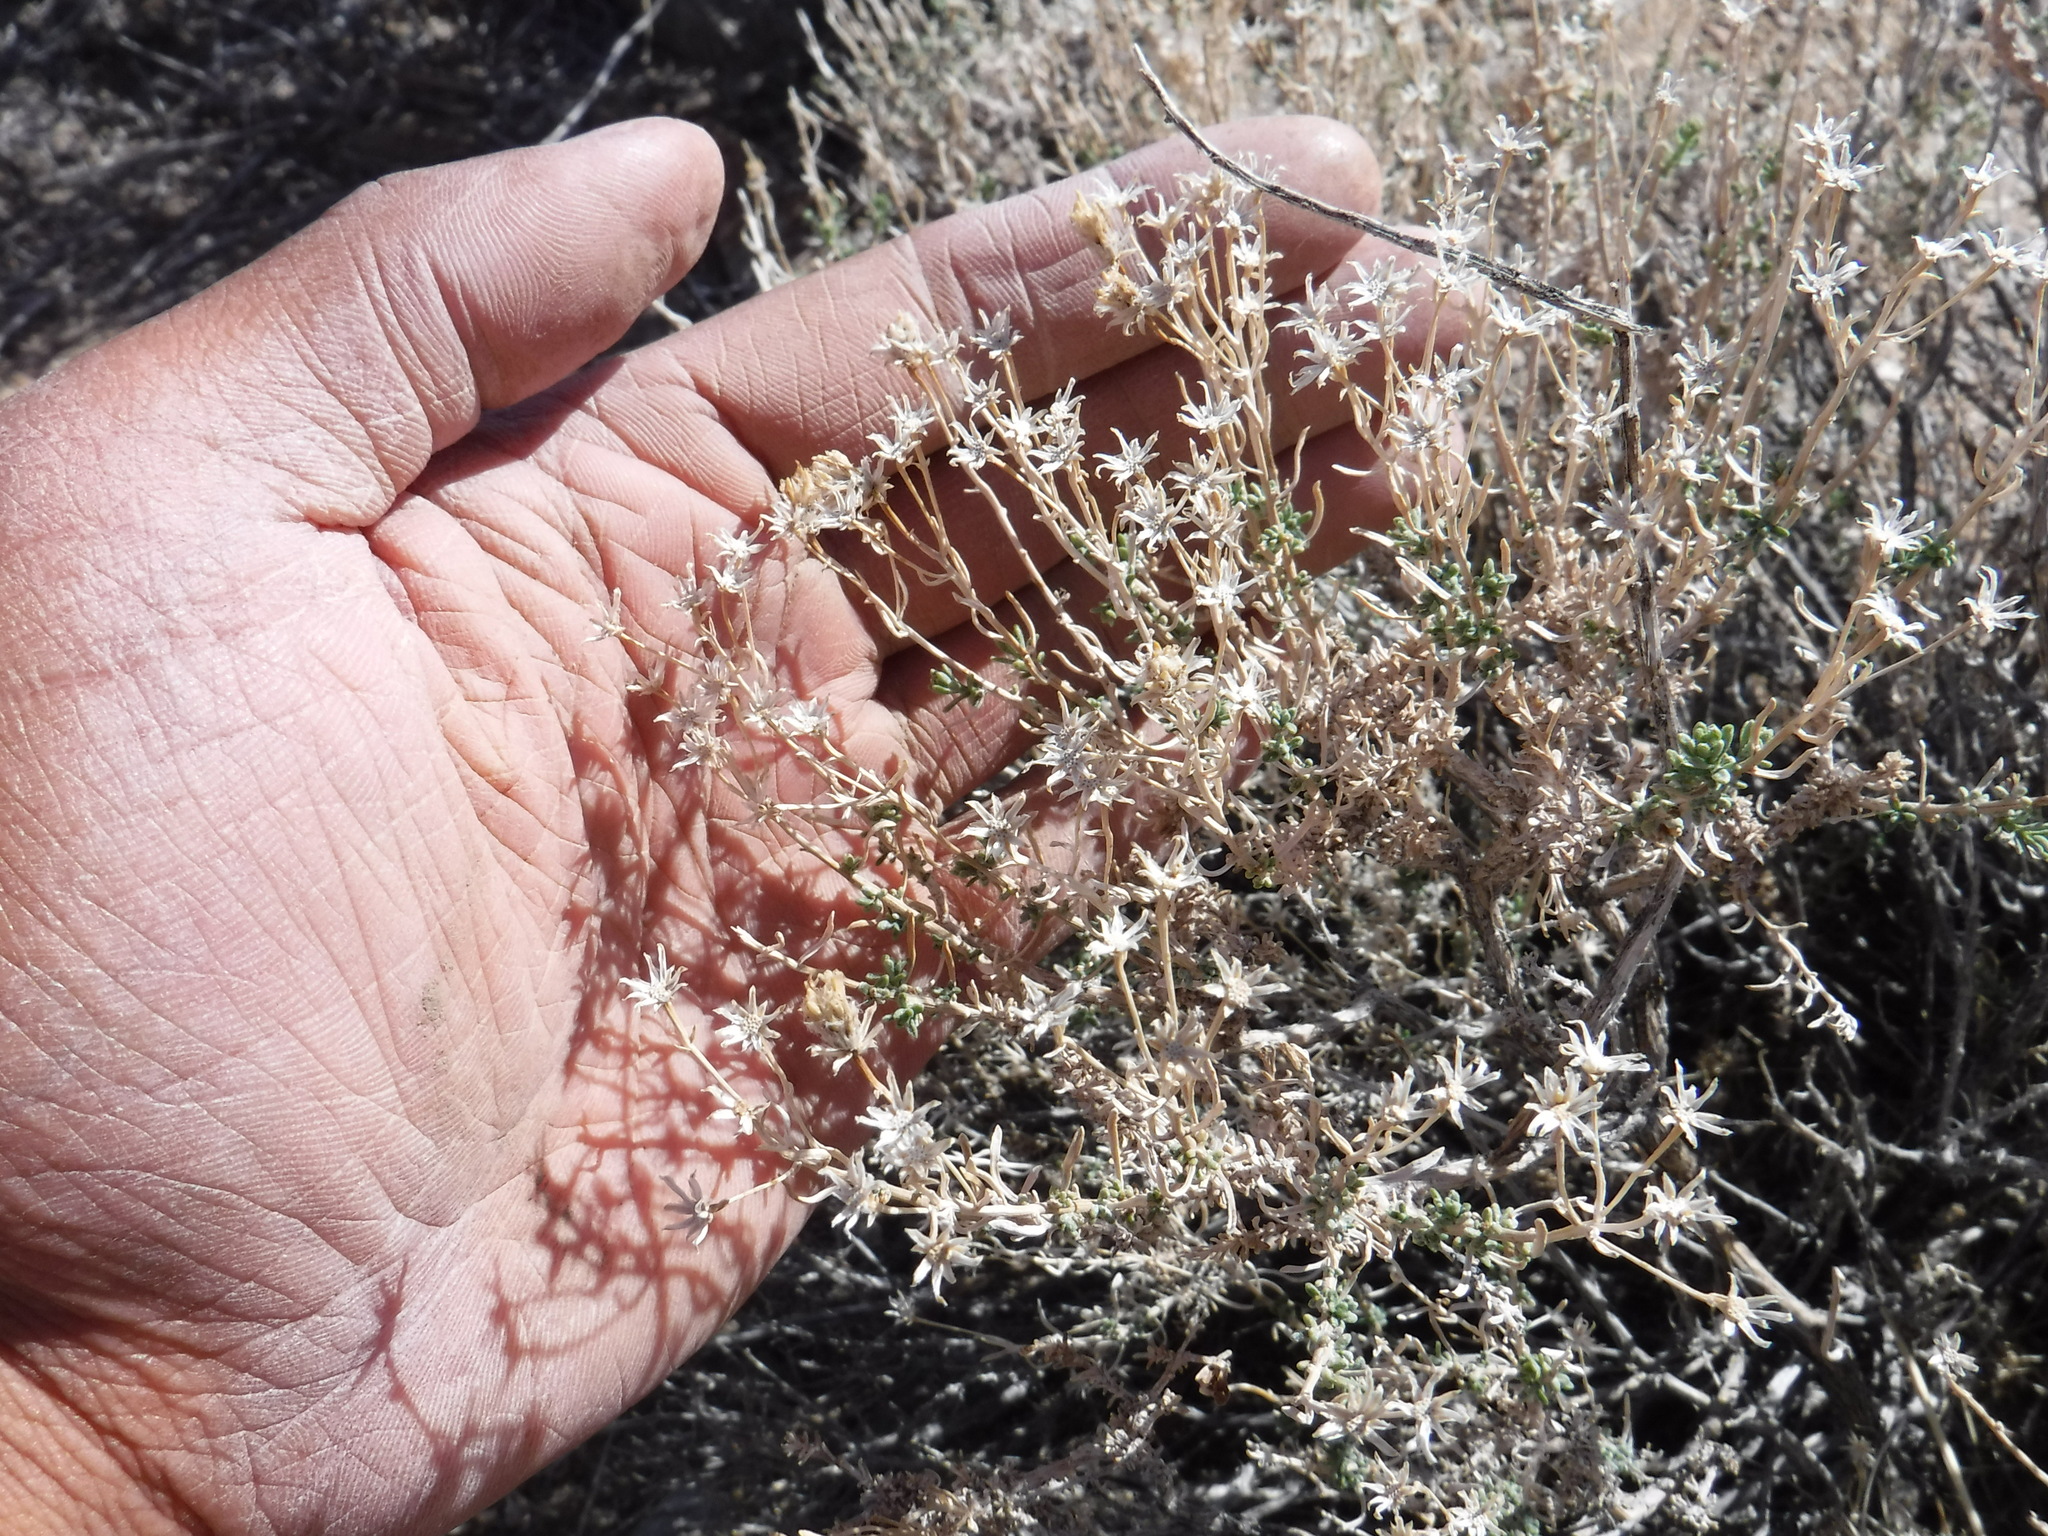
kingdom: Plantae
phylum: Tracheophyta
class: Magnoliopsida
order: Asterales
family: Asteraceae
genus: Ericameria
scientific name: Ericameria cooperi
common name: Cooper's goldenbush
